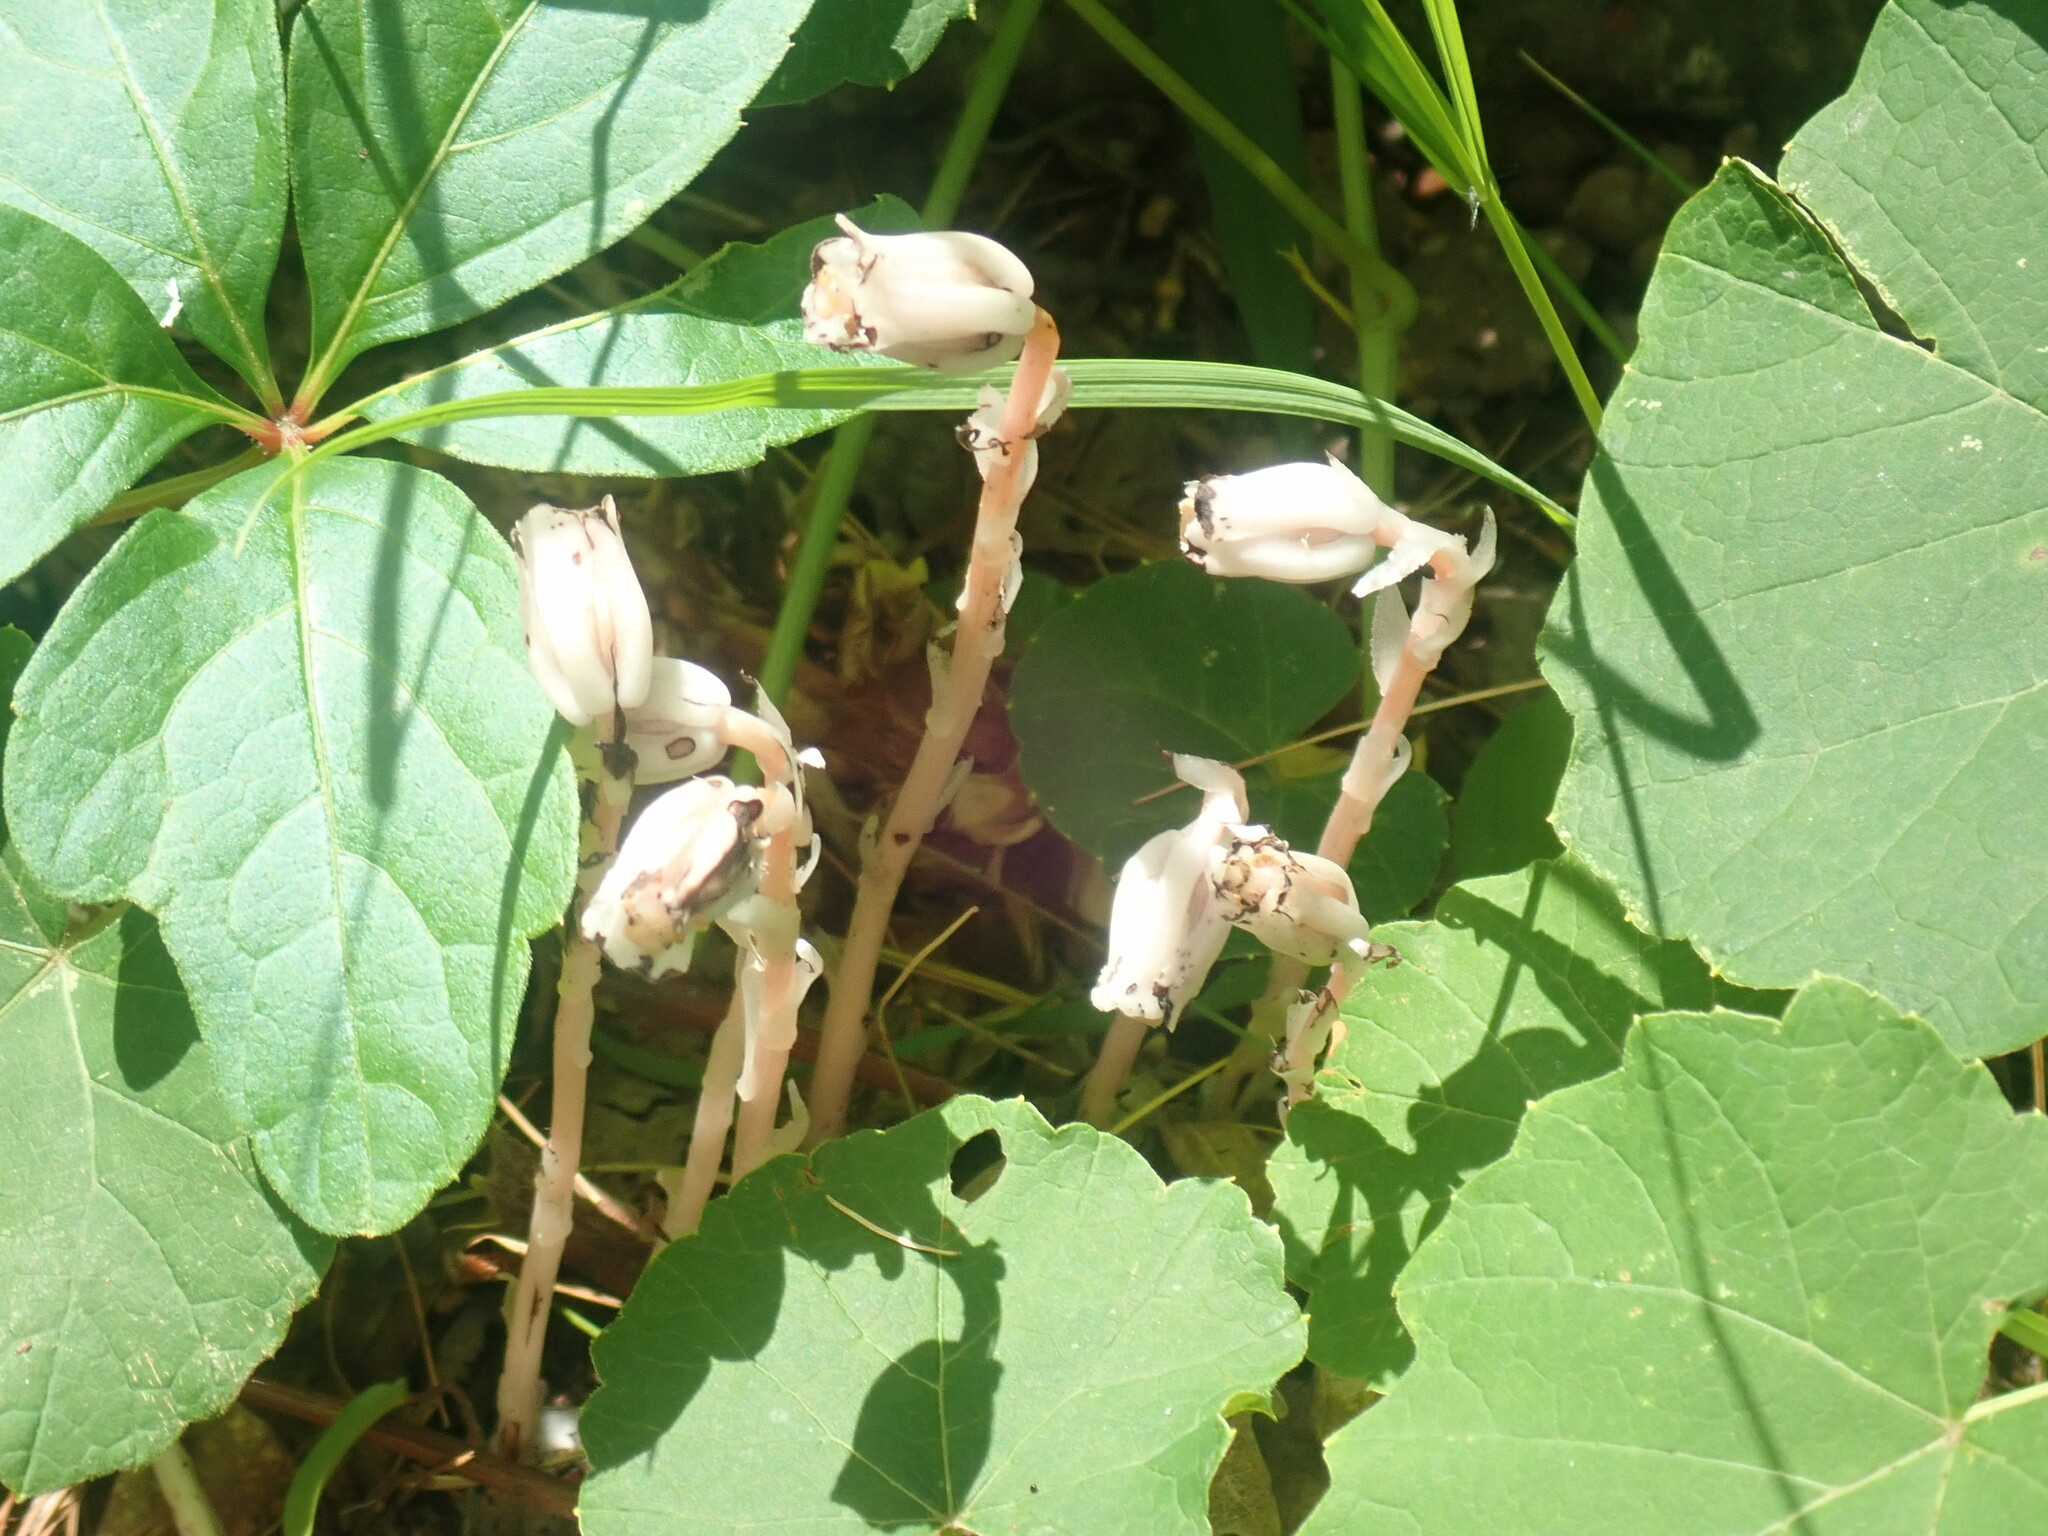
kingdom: Plantae
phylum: Tracheophyta
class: Magnoliopsida
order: Ericales
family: Ericaceae
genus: Monotropa
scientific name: Monotropa uniflora
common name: Convulsion root
